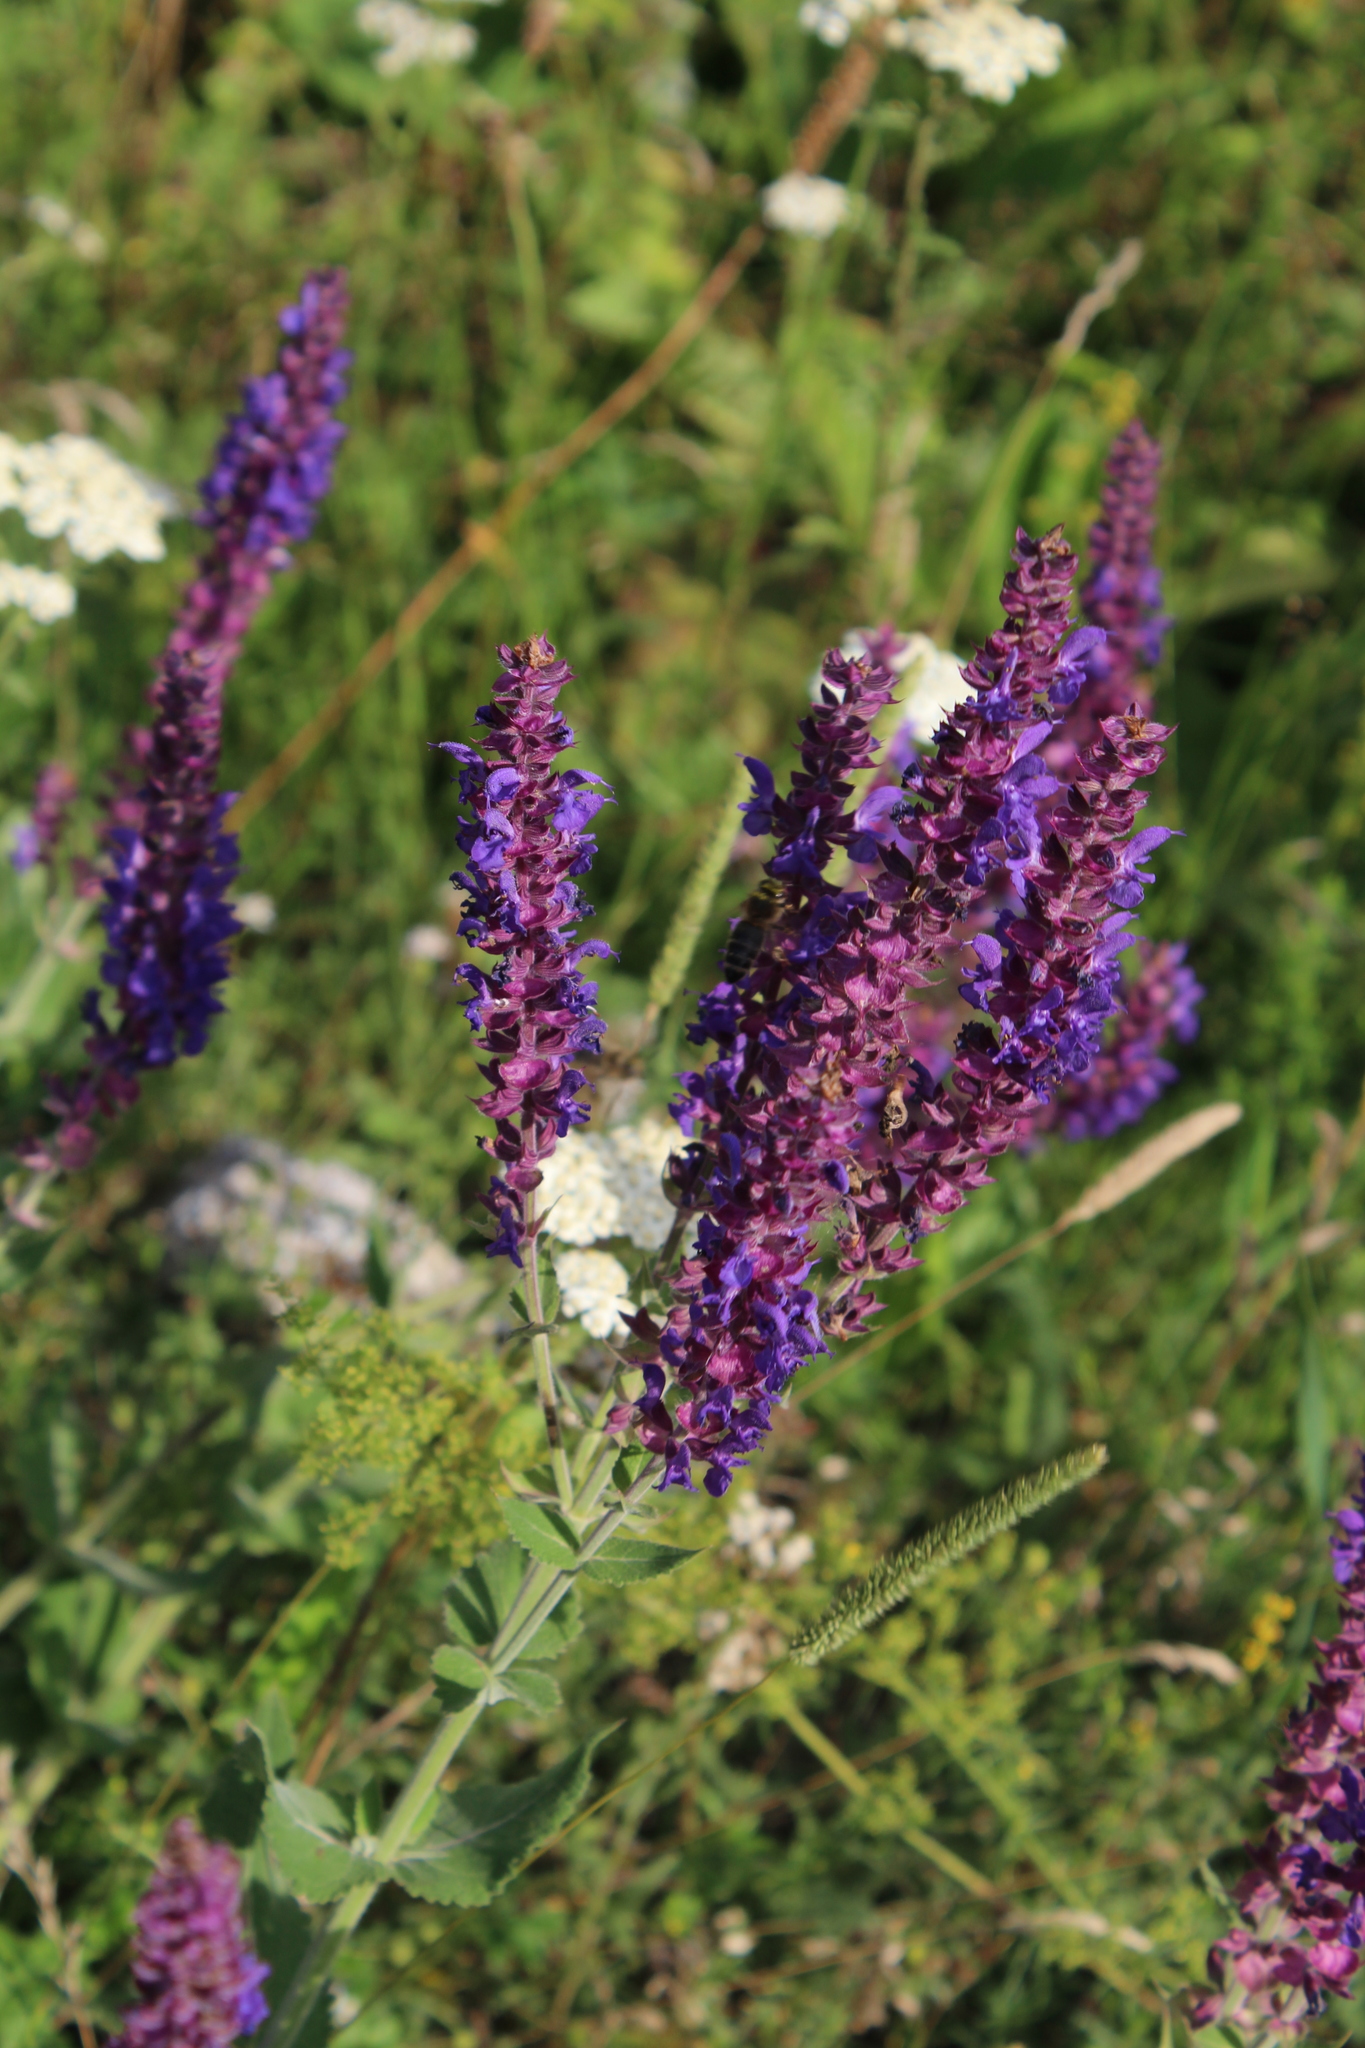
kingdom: Plantae
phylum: Tracheophyta
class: Magnoliopsida
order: Lamiales
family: Lamiaceae
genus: Salvia
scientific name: Salvia nemorosa
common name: Balkan clary
